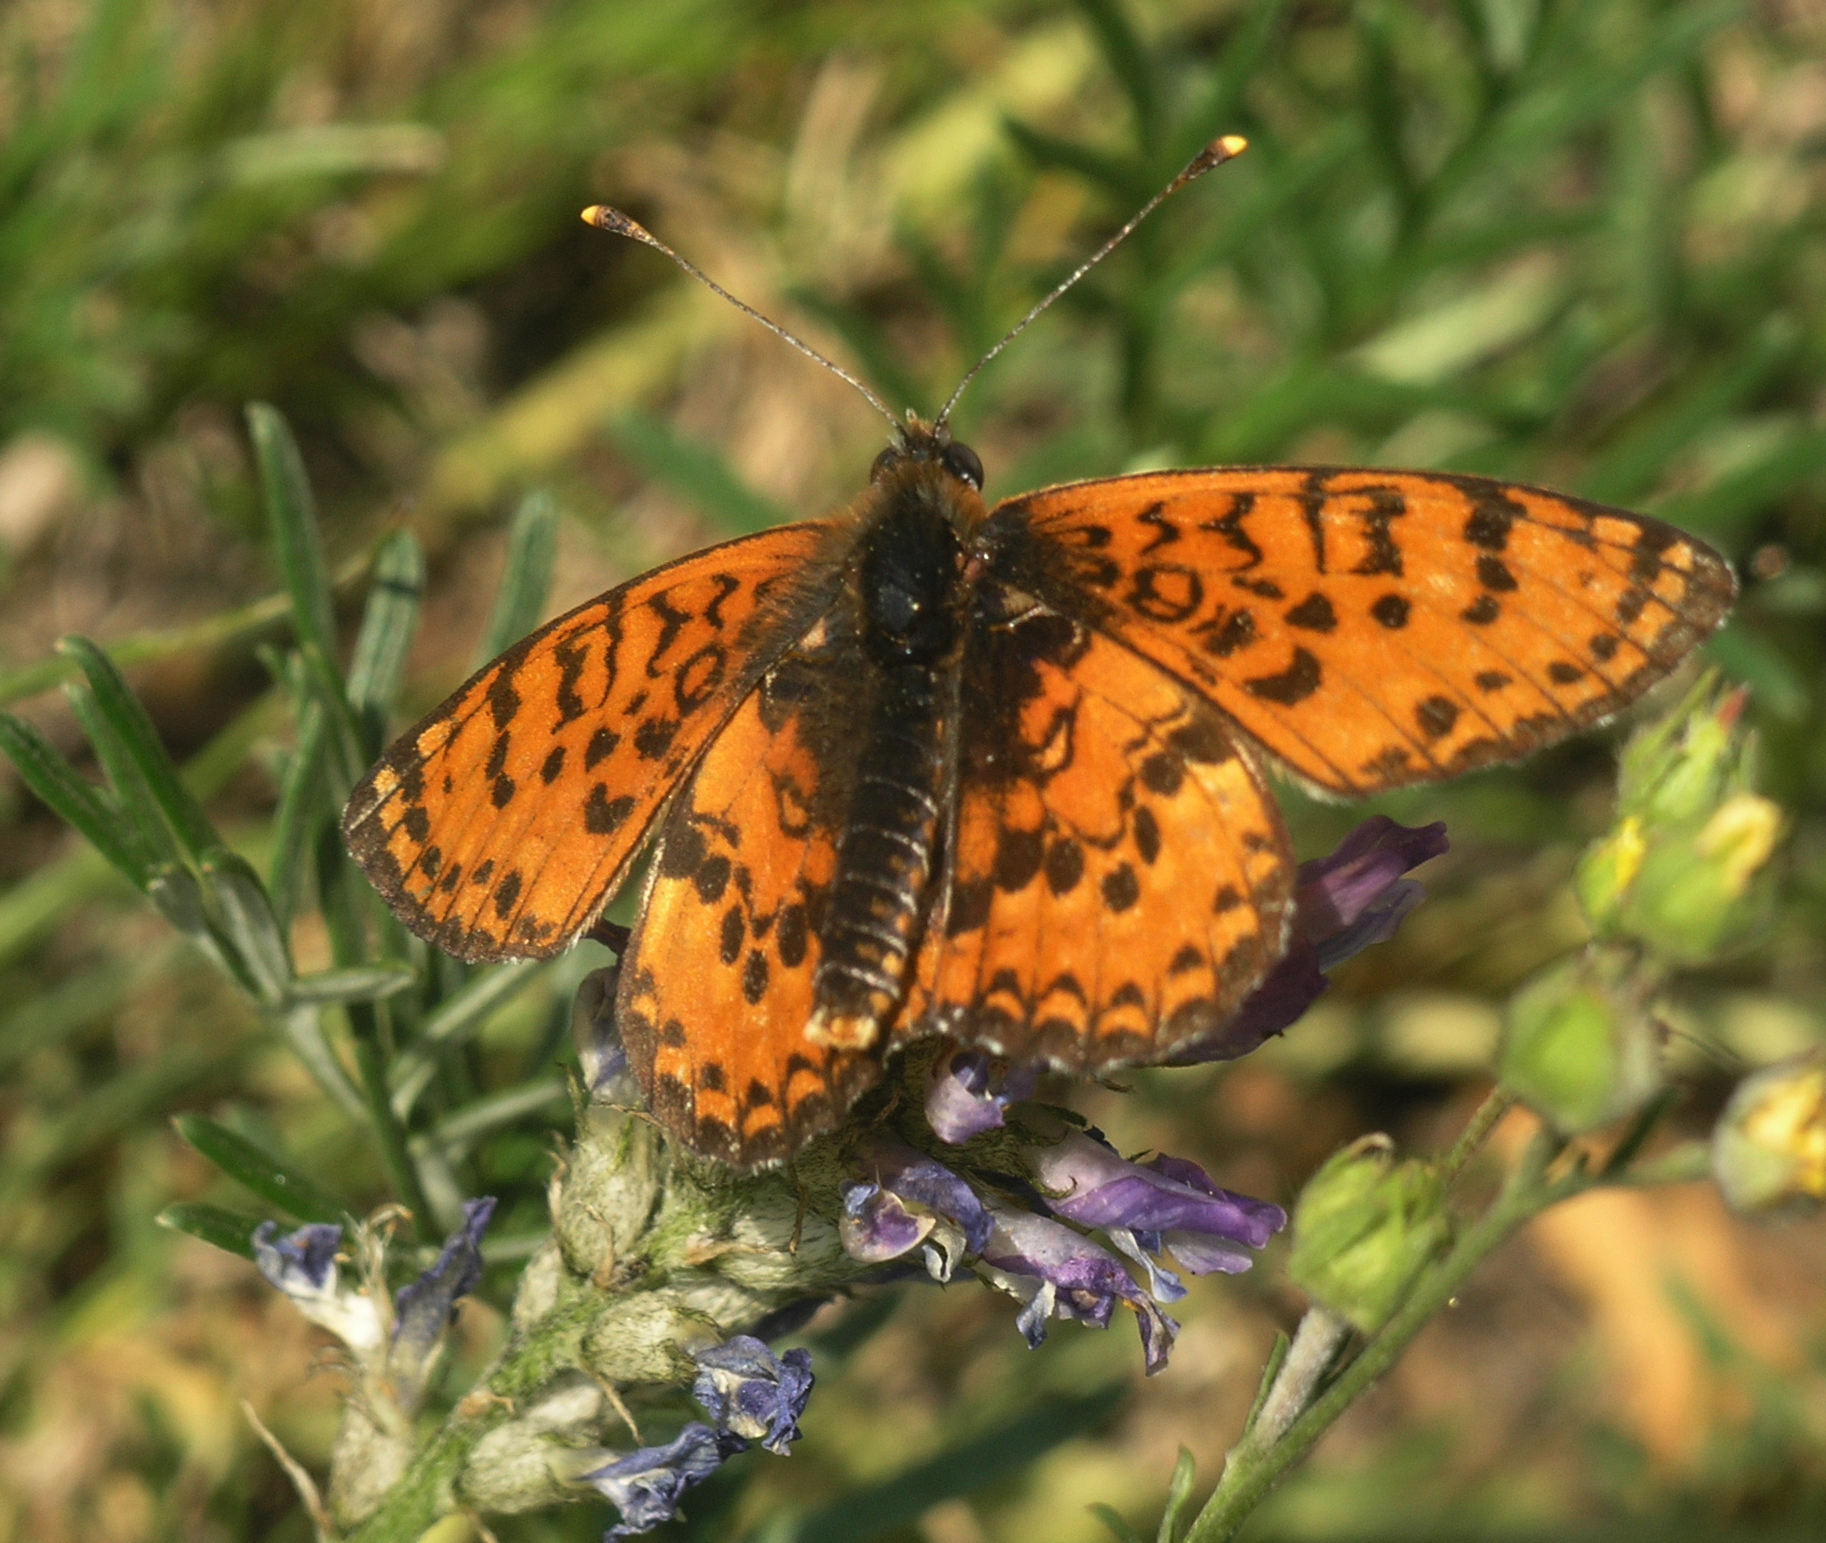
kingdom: Animalia
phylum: Arthropoda
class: Insecta
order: Lepidoptera
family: Nymphalidae
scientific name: Nymphalidae
